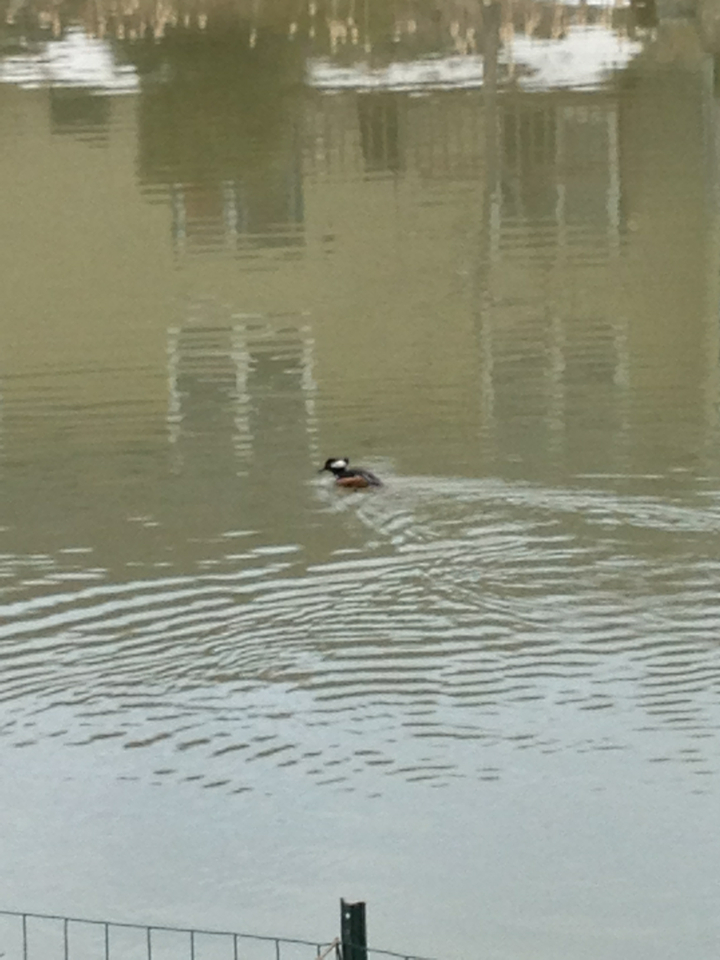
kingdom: Animalia
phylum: Chordata
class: Aves
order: Anseriformes
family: Anatidae
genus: Lophodytes
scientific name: Lophodytes cucullatus
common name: Hooded merganser
